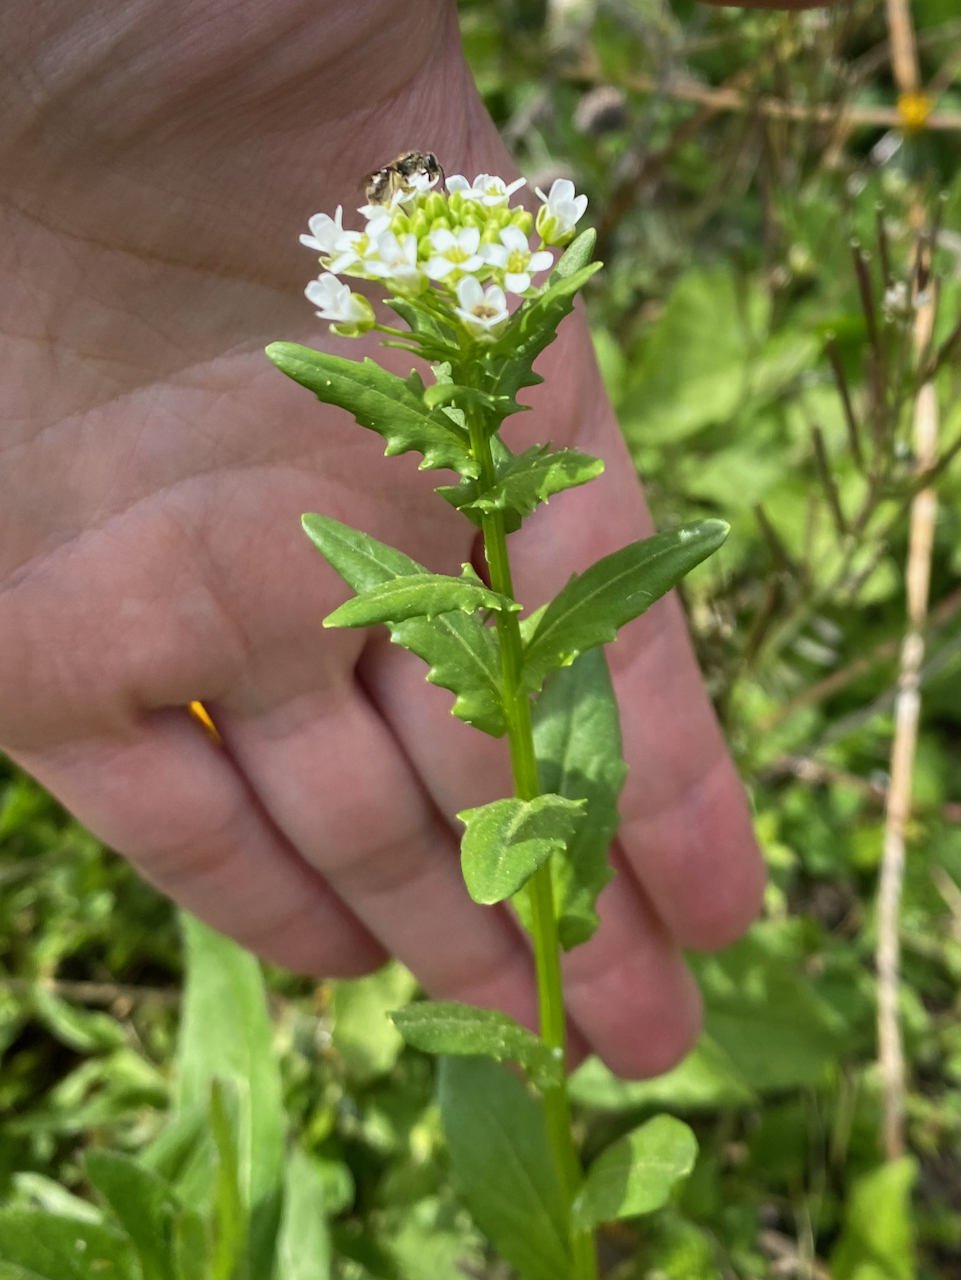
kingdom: Plantae
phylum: Tracheophyta
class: Magnoliopsida
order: Brassicales
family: Brassicaceae
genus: Thlaspi
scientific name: Thlaspi arvense
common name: Field pennycress
